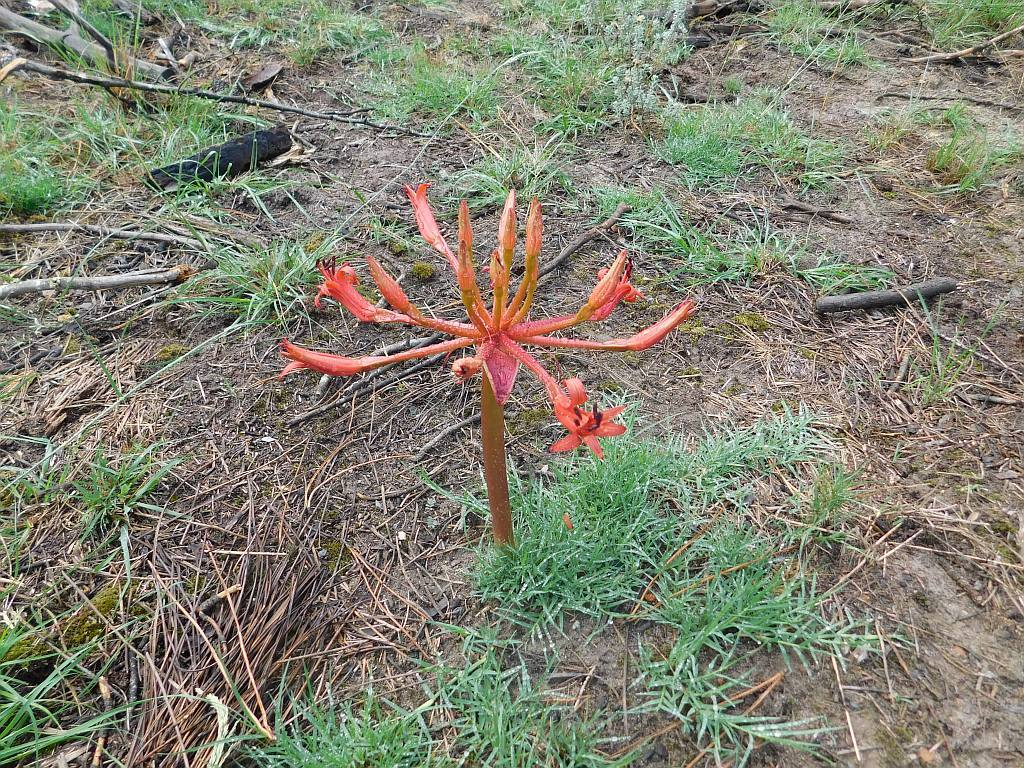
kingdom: Plantae
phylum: Tracheophyta
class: Liliopsida
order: Asparagales
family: Amaryllidaceae
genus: Brunsvigia
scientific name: Brunsvigia orientalis
